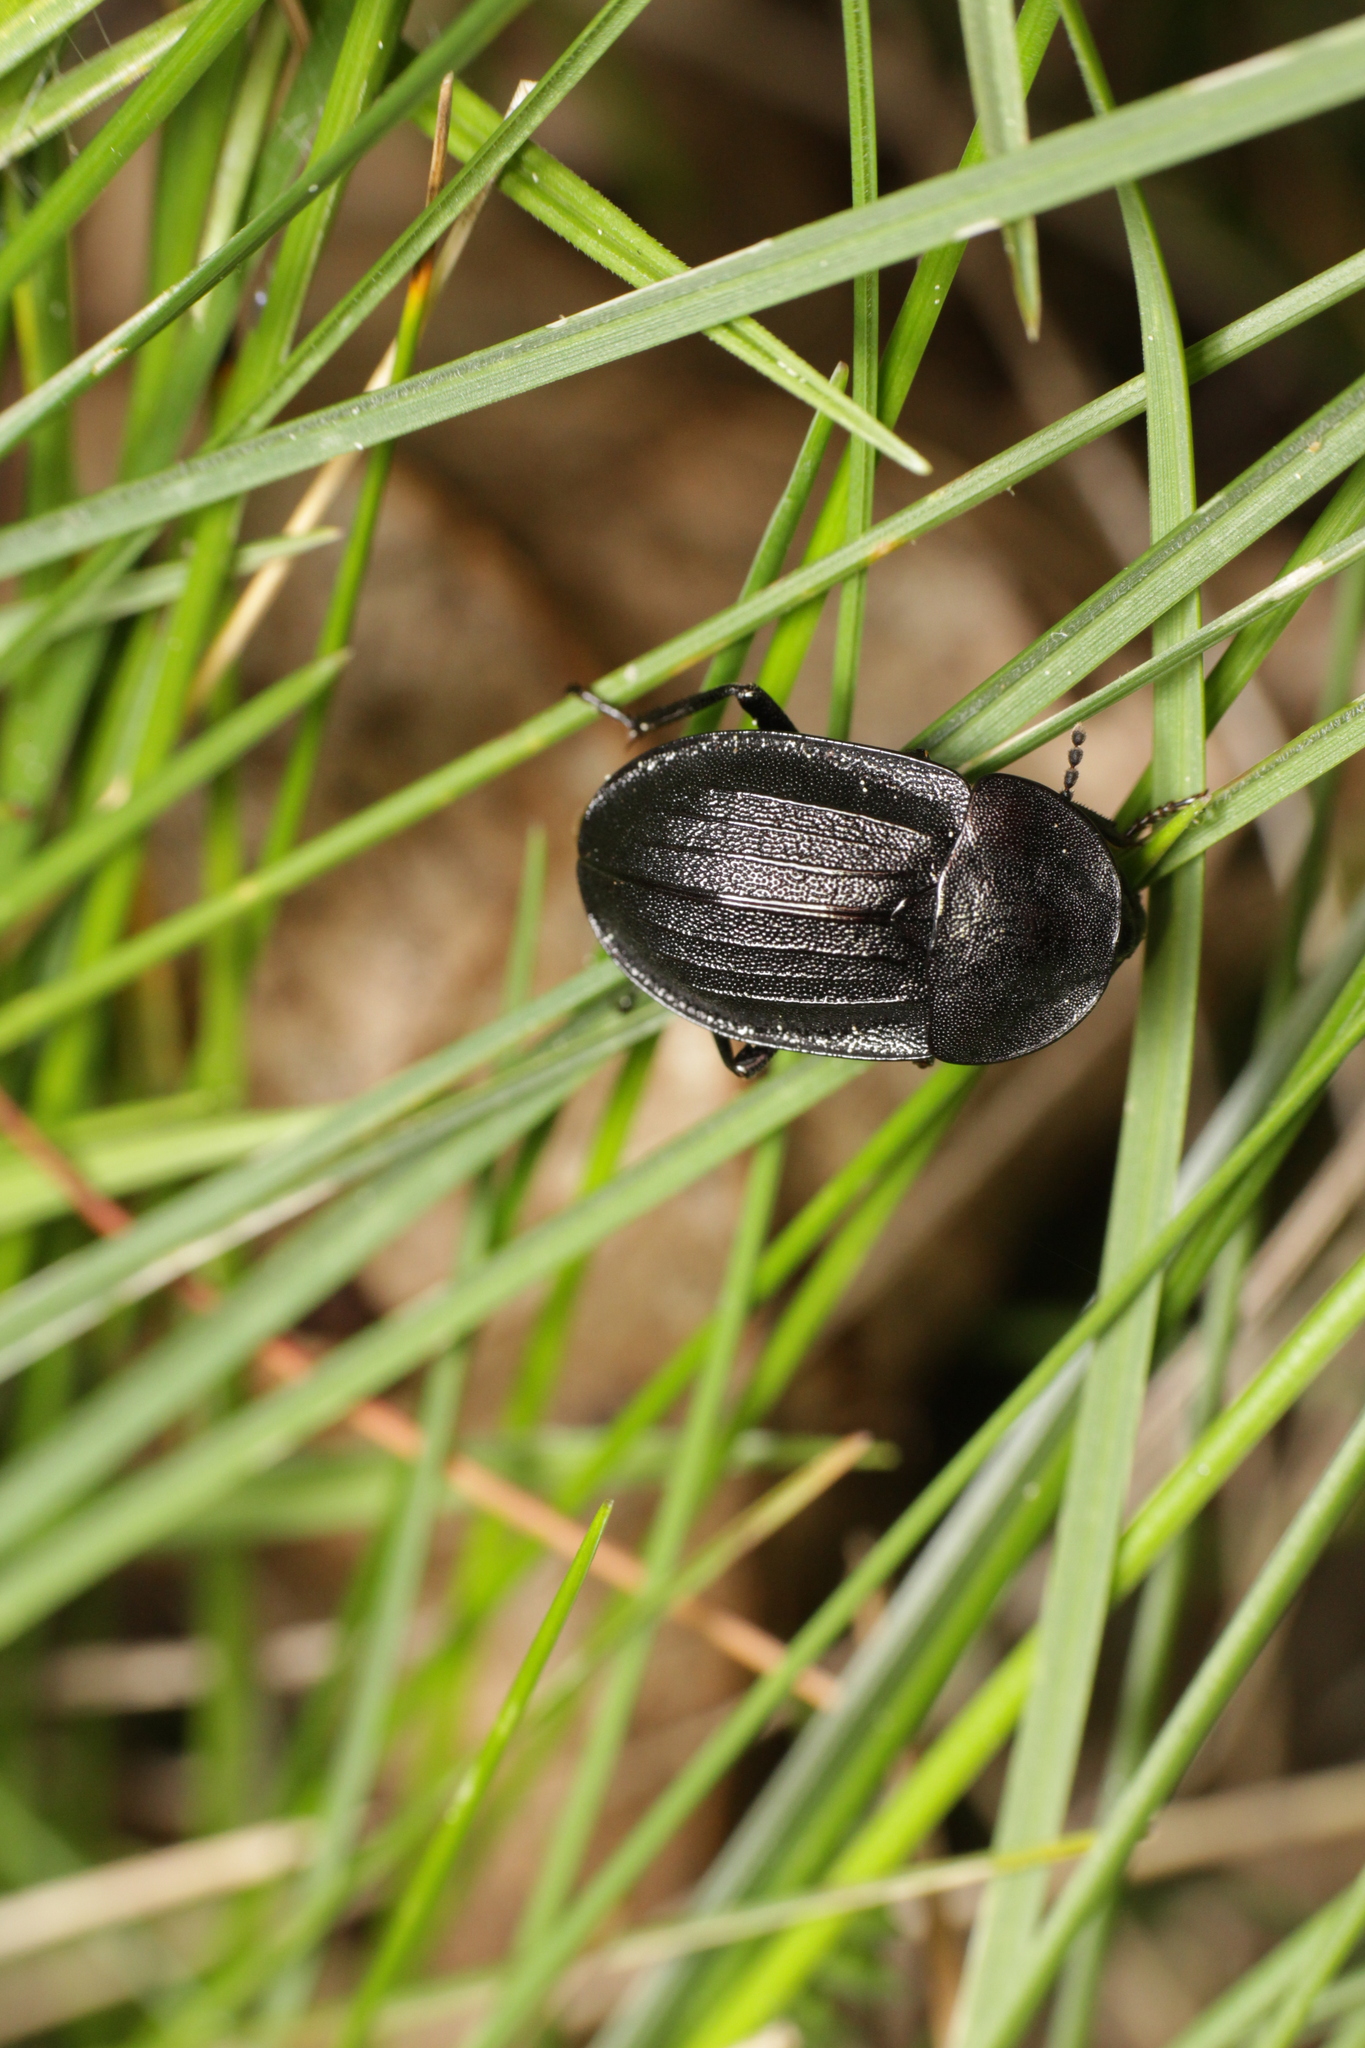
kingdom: Animalia
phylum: Arthropoda
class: Insecta
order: Coleoptera
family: Staphylinidae
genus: Silpha
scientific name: Silpha atrata
